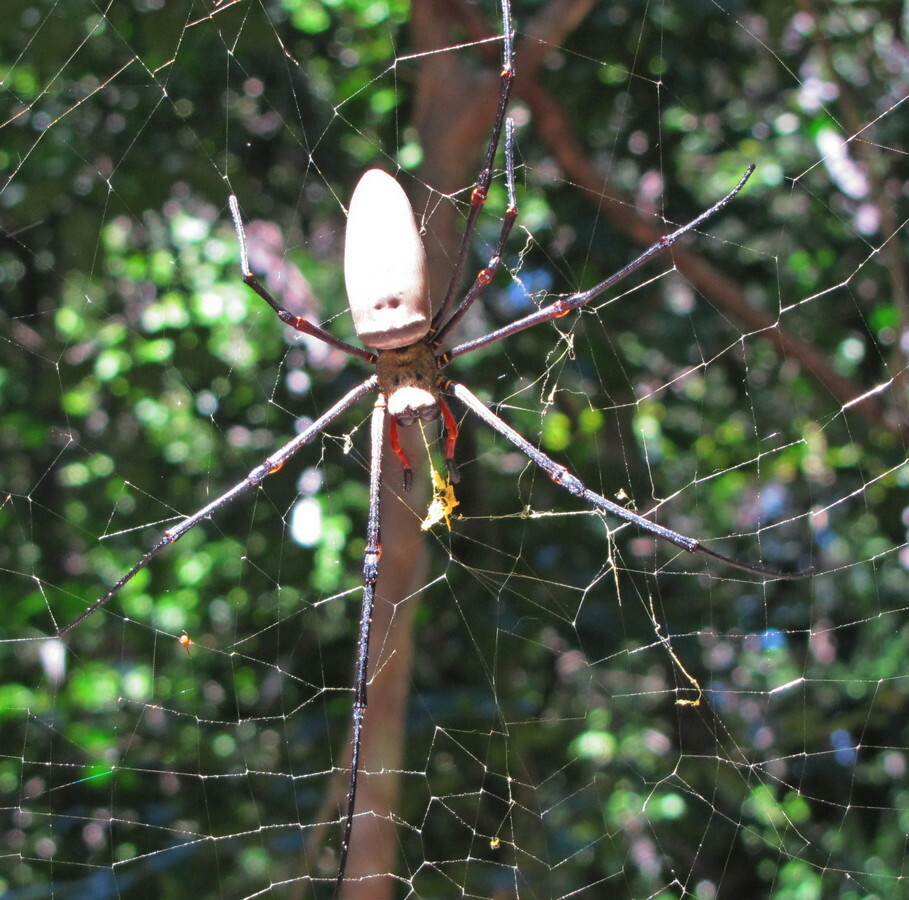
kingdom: Animalia
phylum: Arthropoda
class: Arachnida
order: Araneae
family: Araneidae
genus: Nephila
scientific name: Nephila pilipes
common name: Giant golden orb weaver
